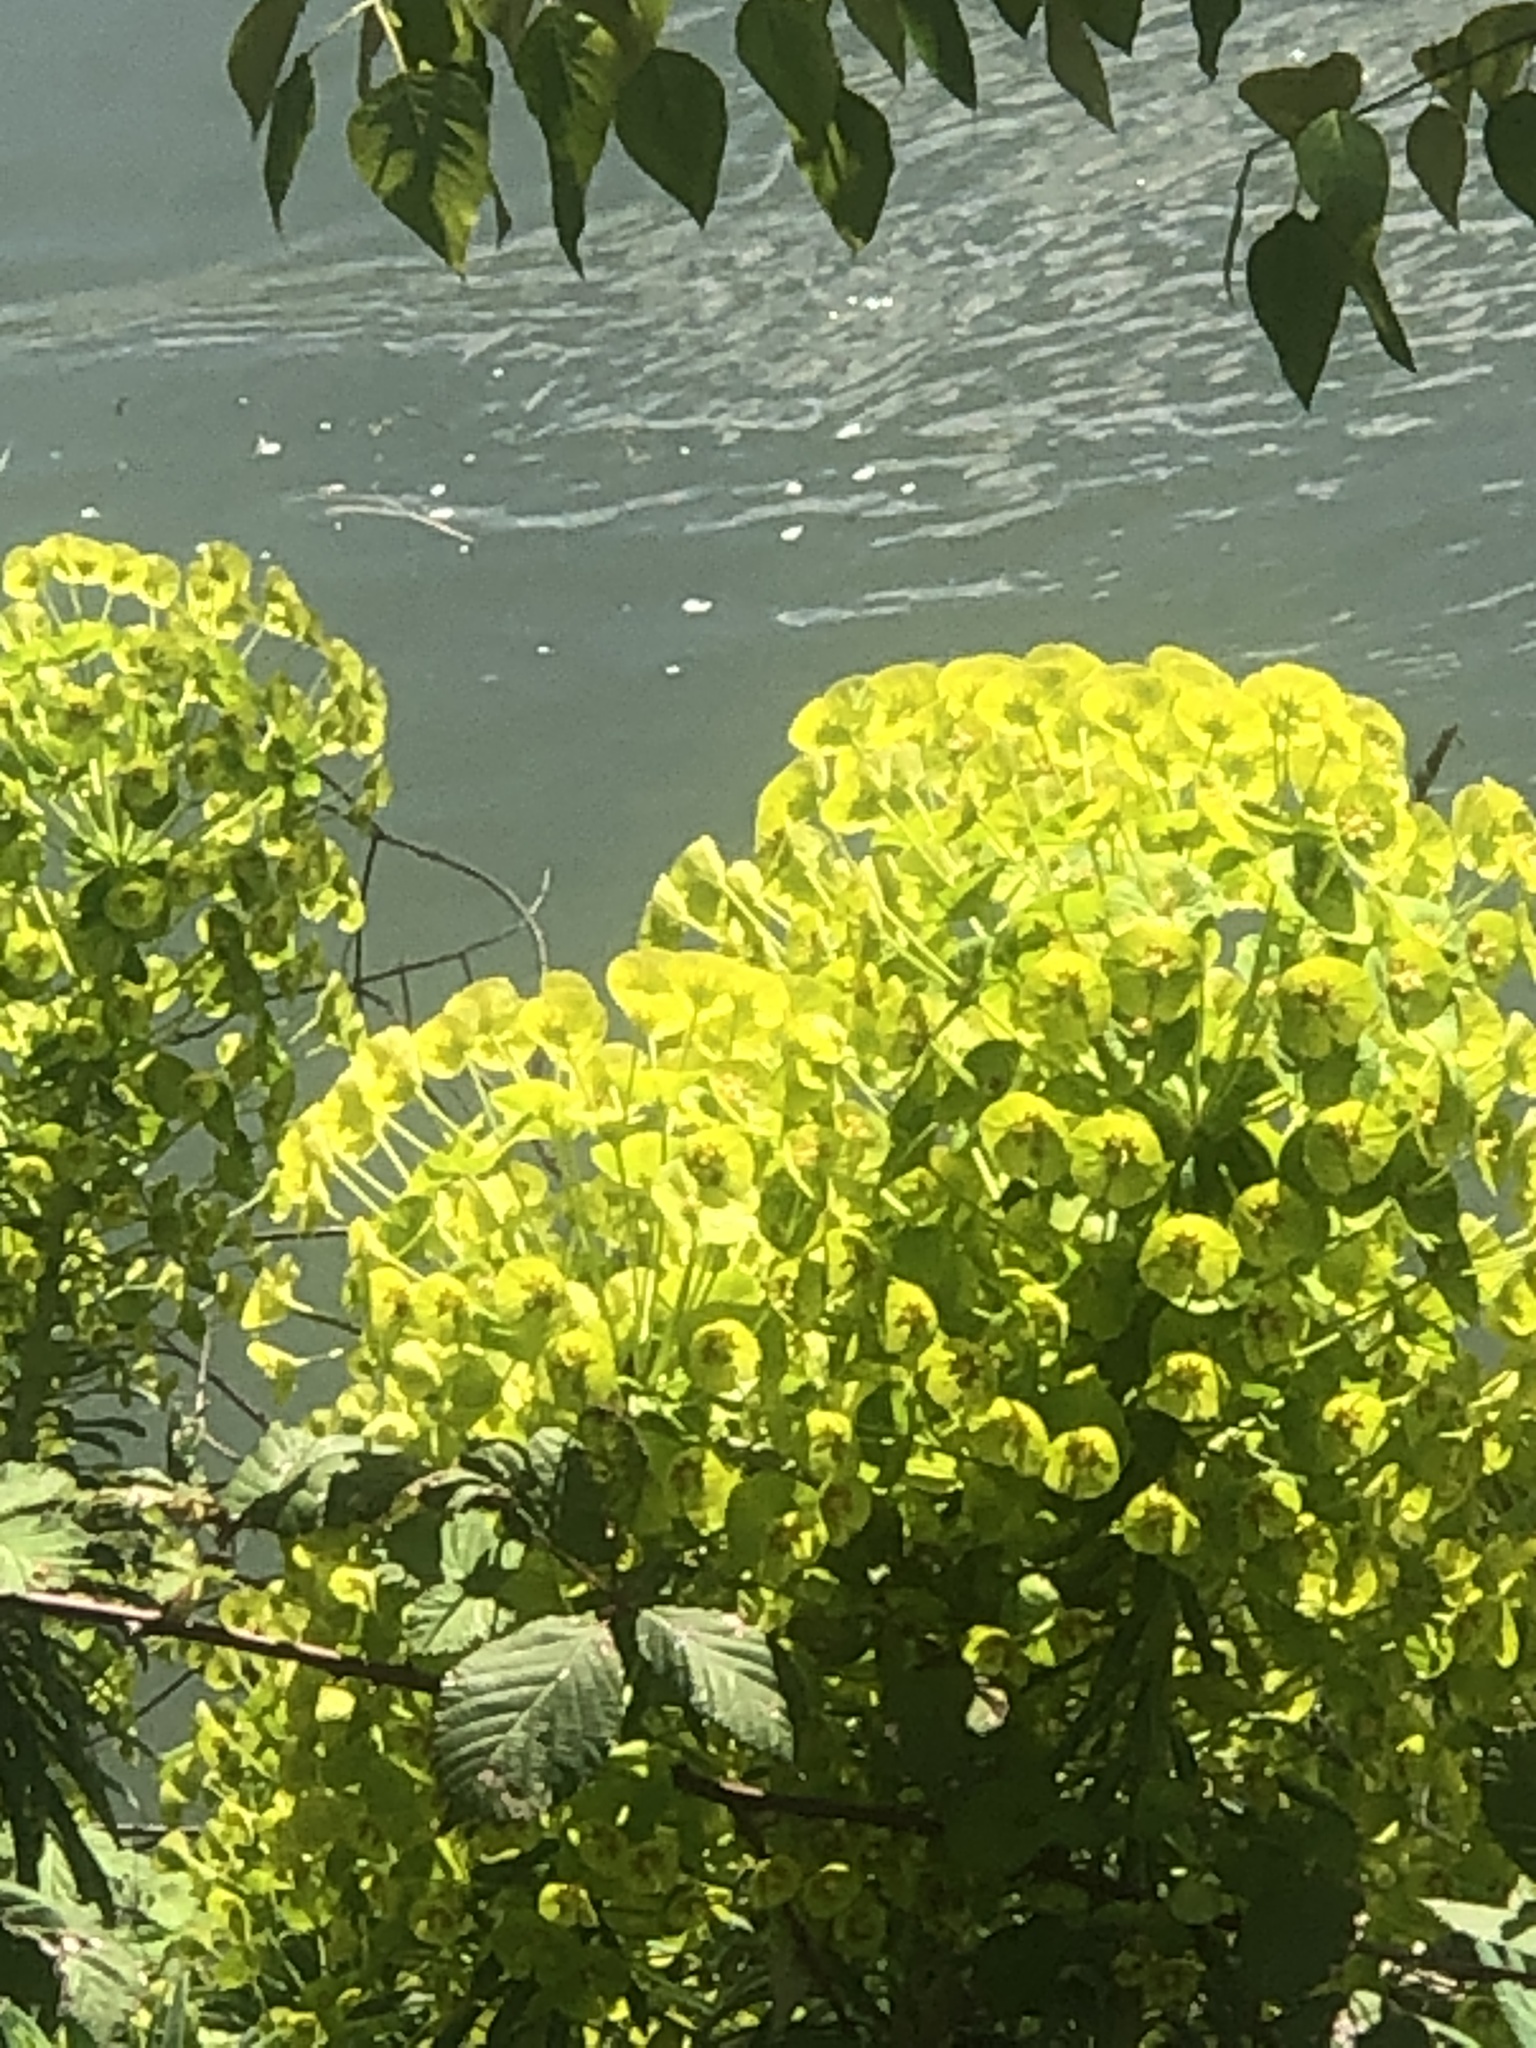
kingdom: Plantae
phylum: Tracheophyta
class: Magnoliopsida
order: Malpighiales
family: Euphorbiaceae
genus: Euphorbia
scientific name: Euphorbia characias
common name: Mediterranean spurge
